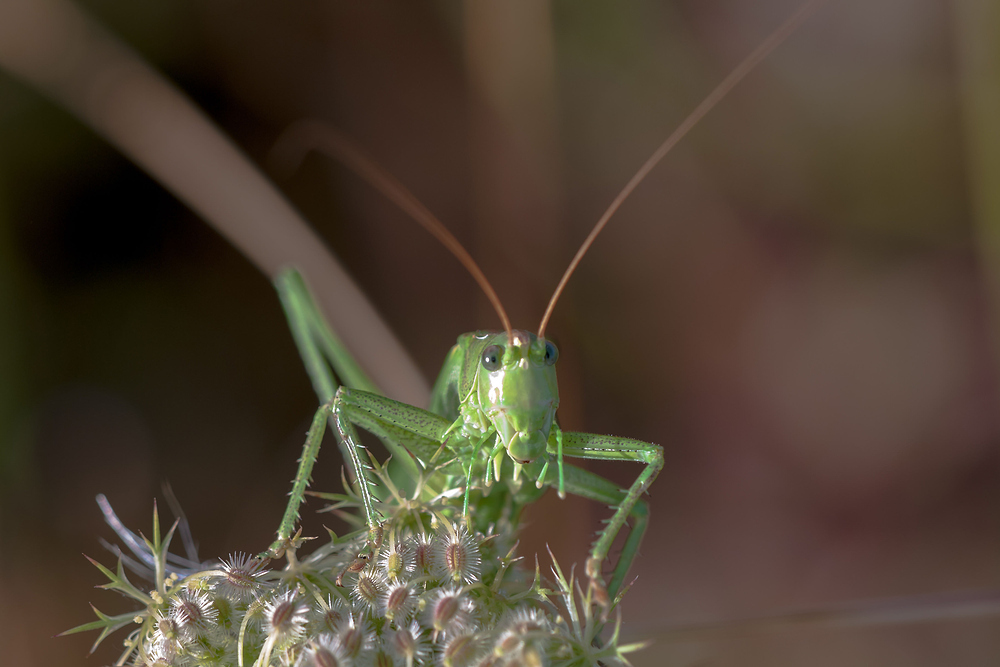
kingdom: Animalia
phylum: Arthropoda
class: Insecta
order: Orthoptera
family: Tettigoniidae
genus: Tettigonia
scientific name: Tettigonia viridissima
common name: Great green bush-cricket
